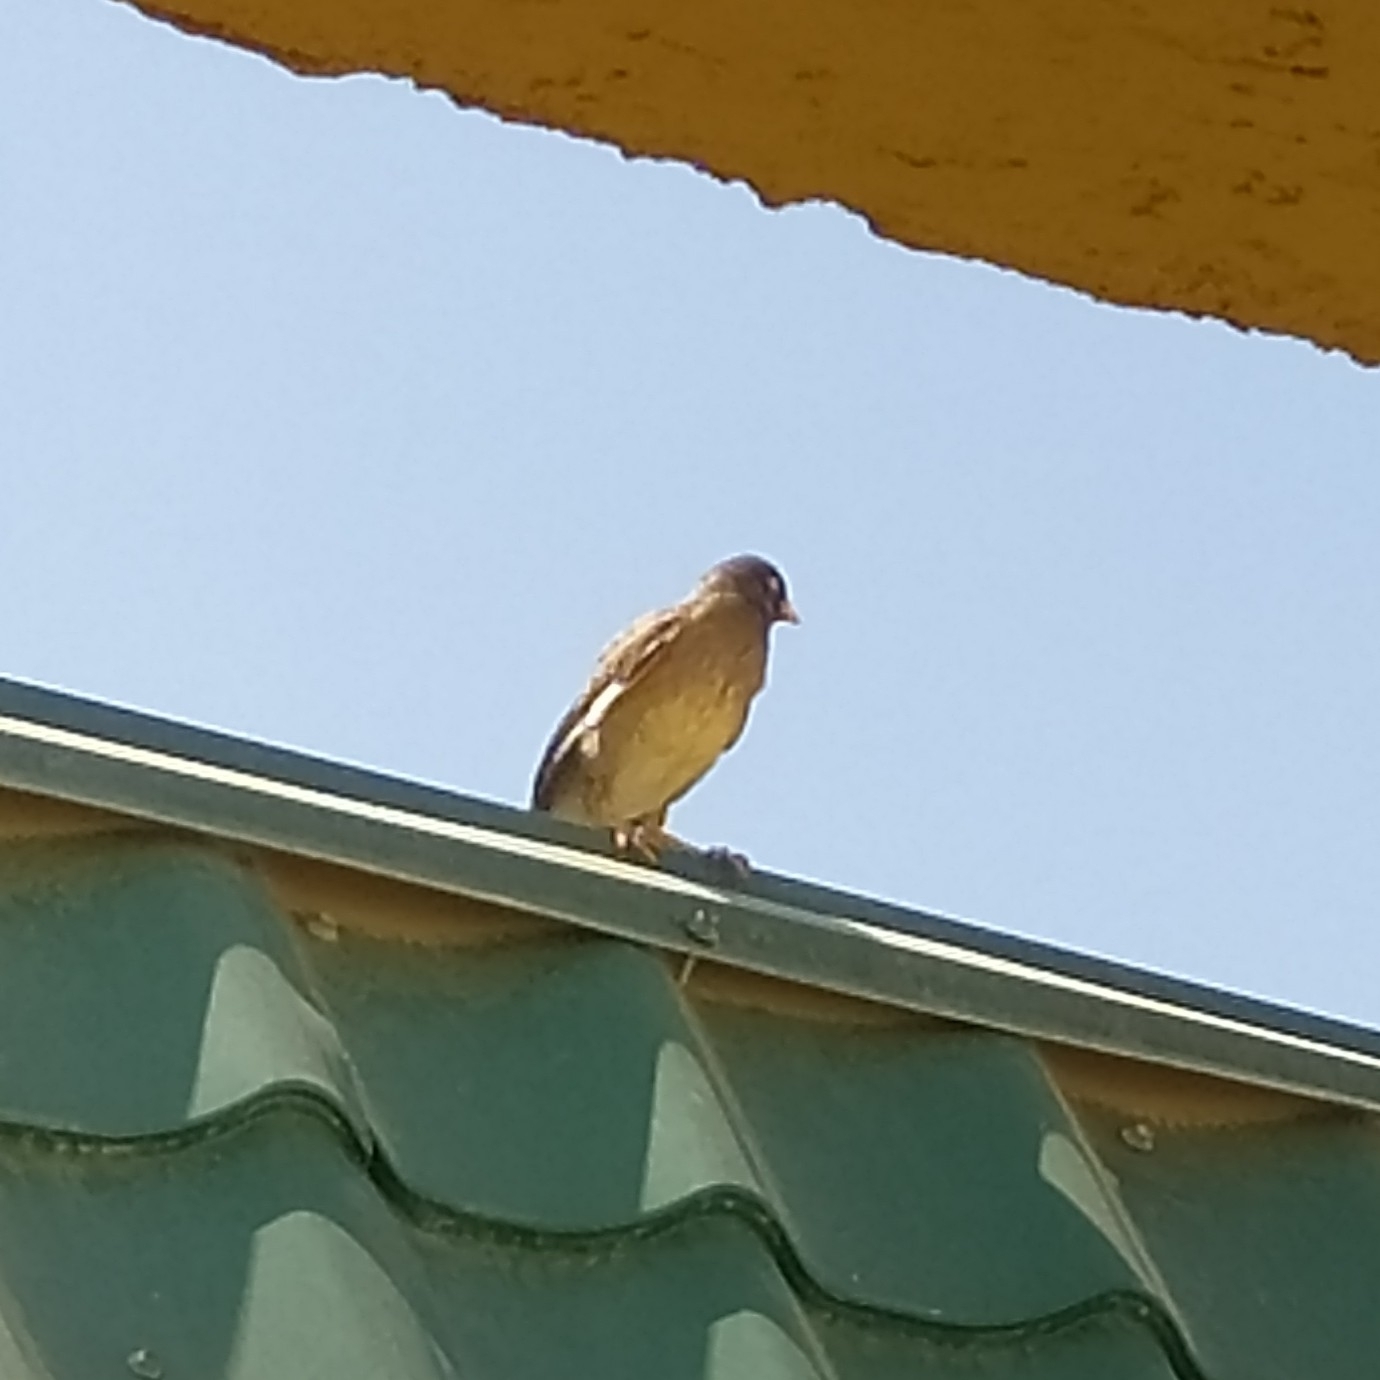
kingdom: Animalia
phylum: Chordata
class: Aves
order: Passeriformes
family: Sturnidae
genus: Acridotheres
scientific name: Acridotheres tristis
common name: Common myna
